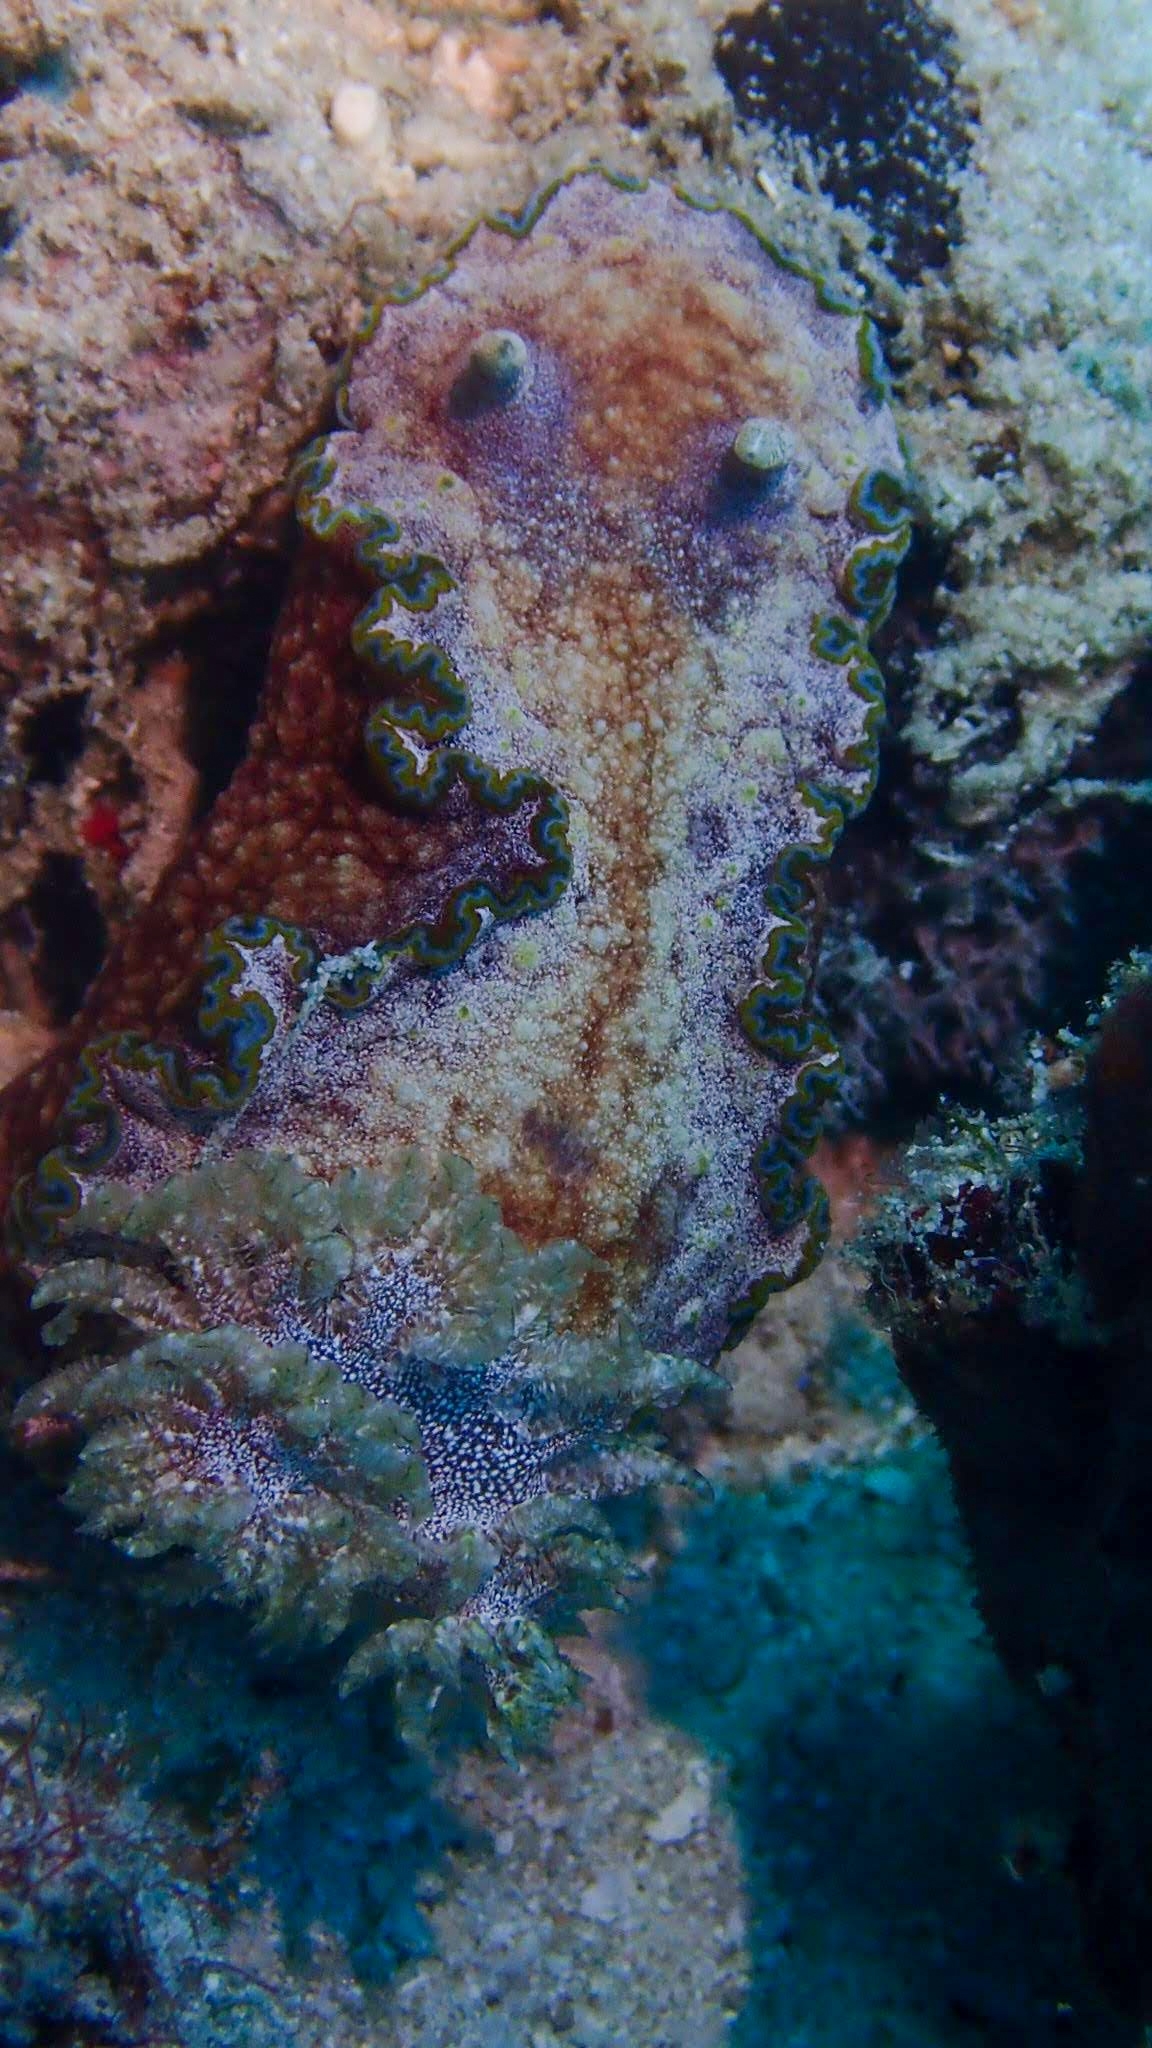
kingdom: Animalia
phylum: Mollusca
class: Gastropoda
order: Nudibranchia
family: Chromodorididae
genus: Glossodoris
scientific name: Glossodoris acosti
